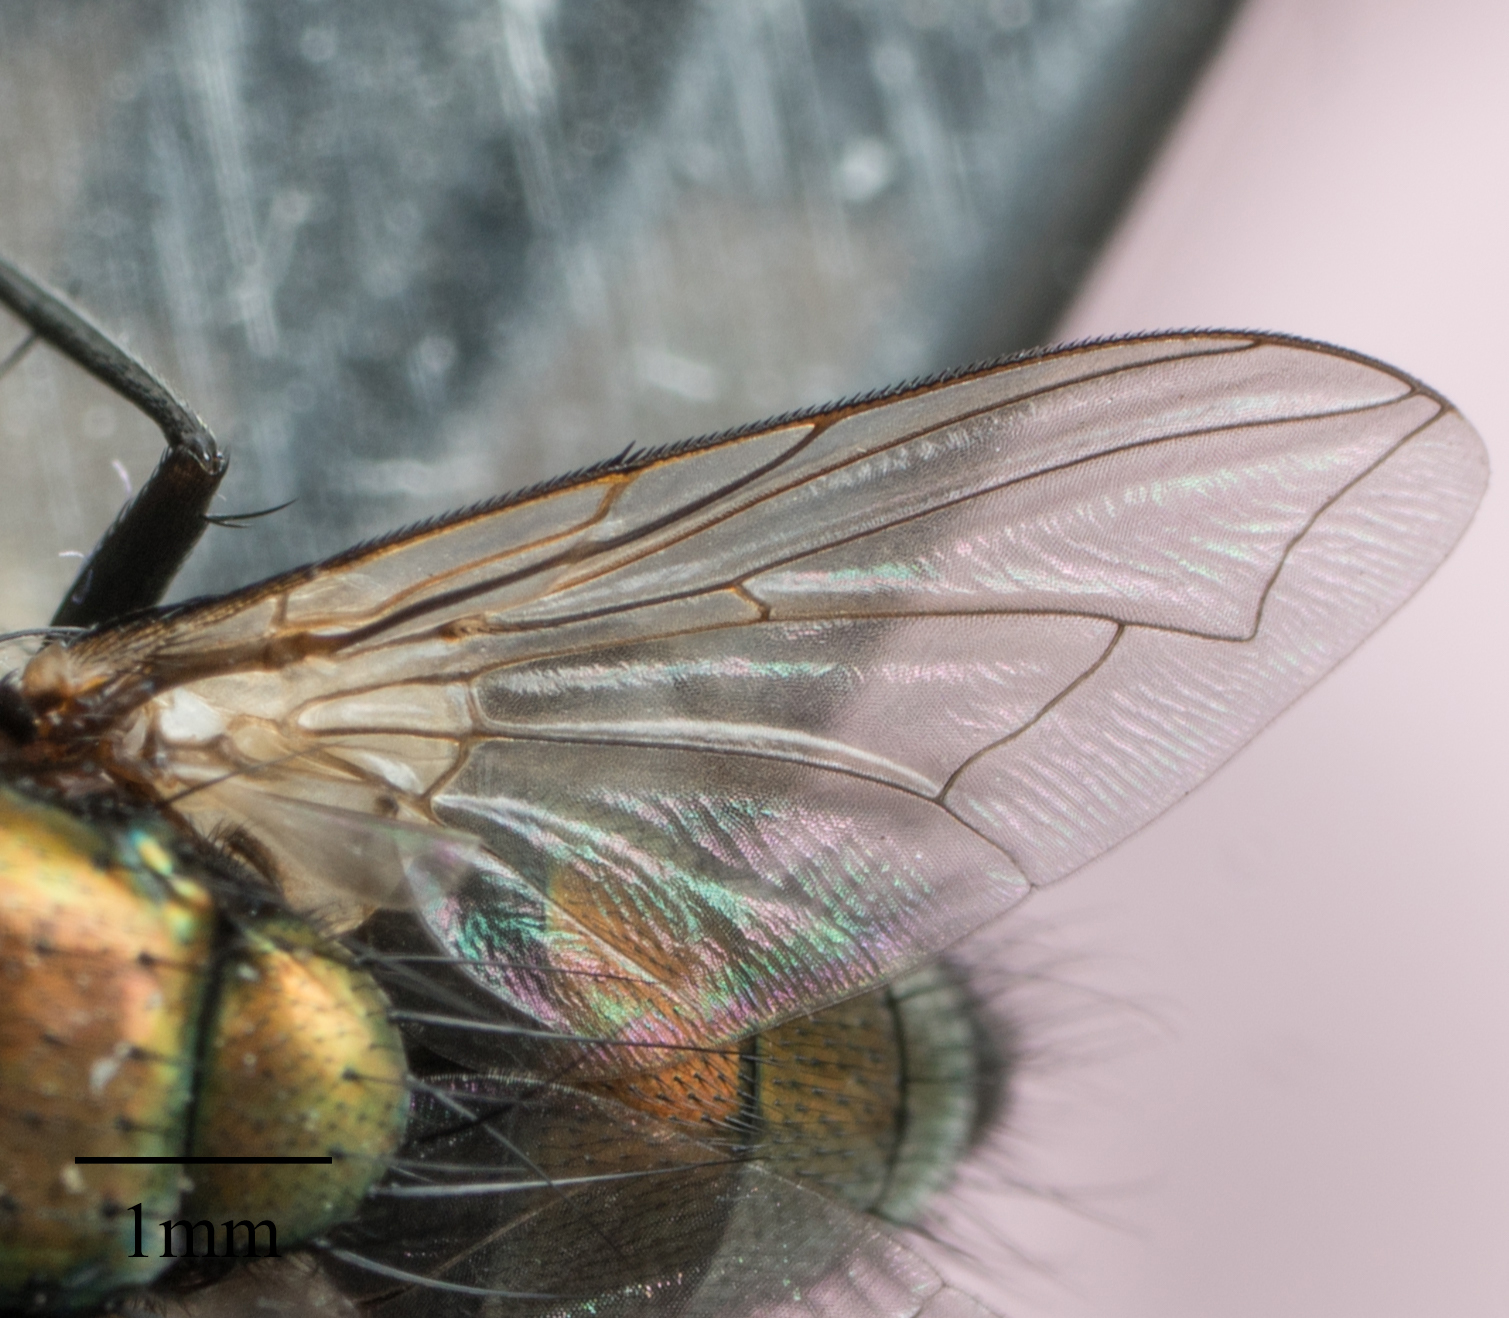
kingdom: Animalia
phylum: Arthropoda
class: Insecta
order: Diptera
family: Calliphoridae
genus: Lucilia
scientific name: Lucilia cuprina
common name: Sheep blow fly
